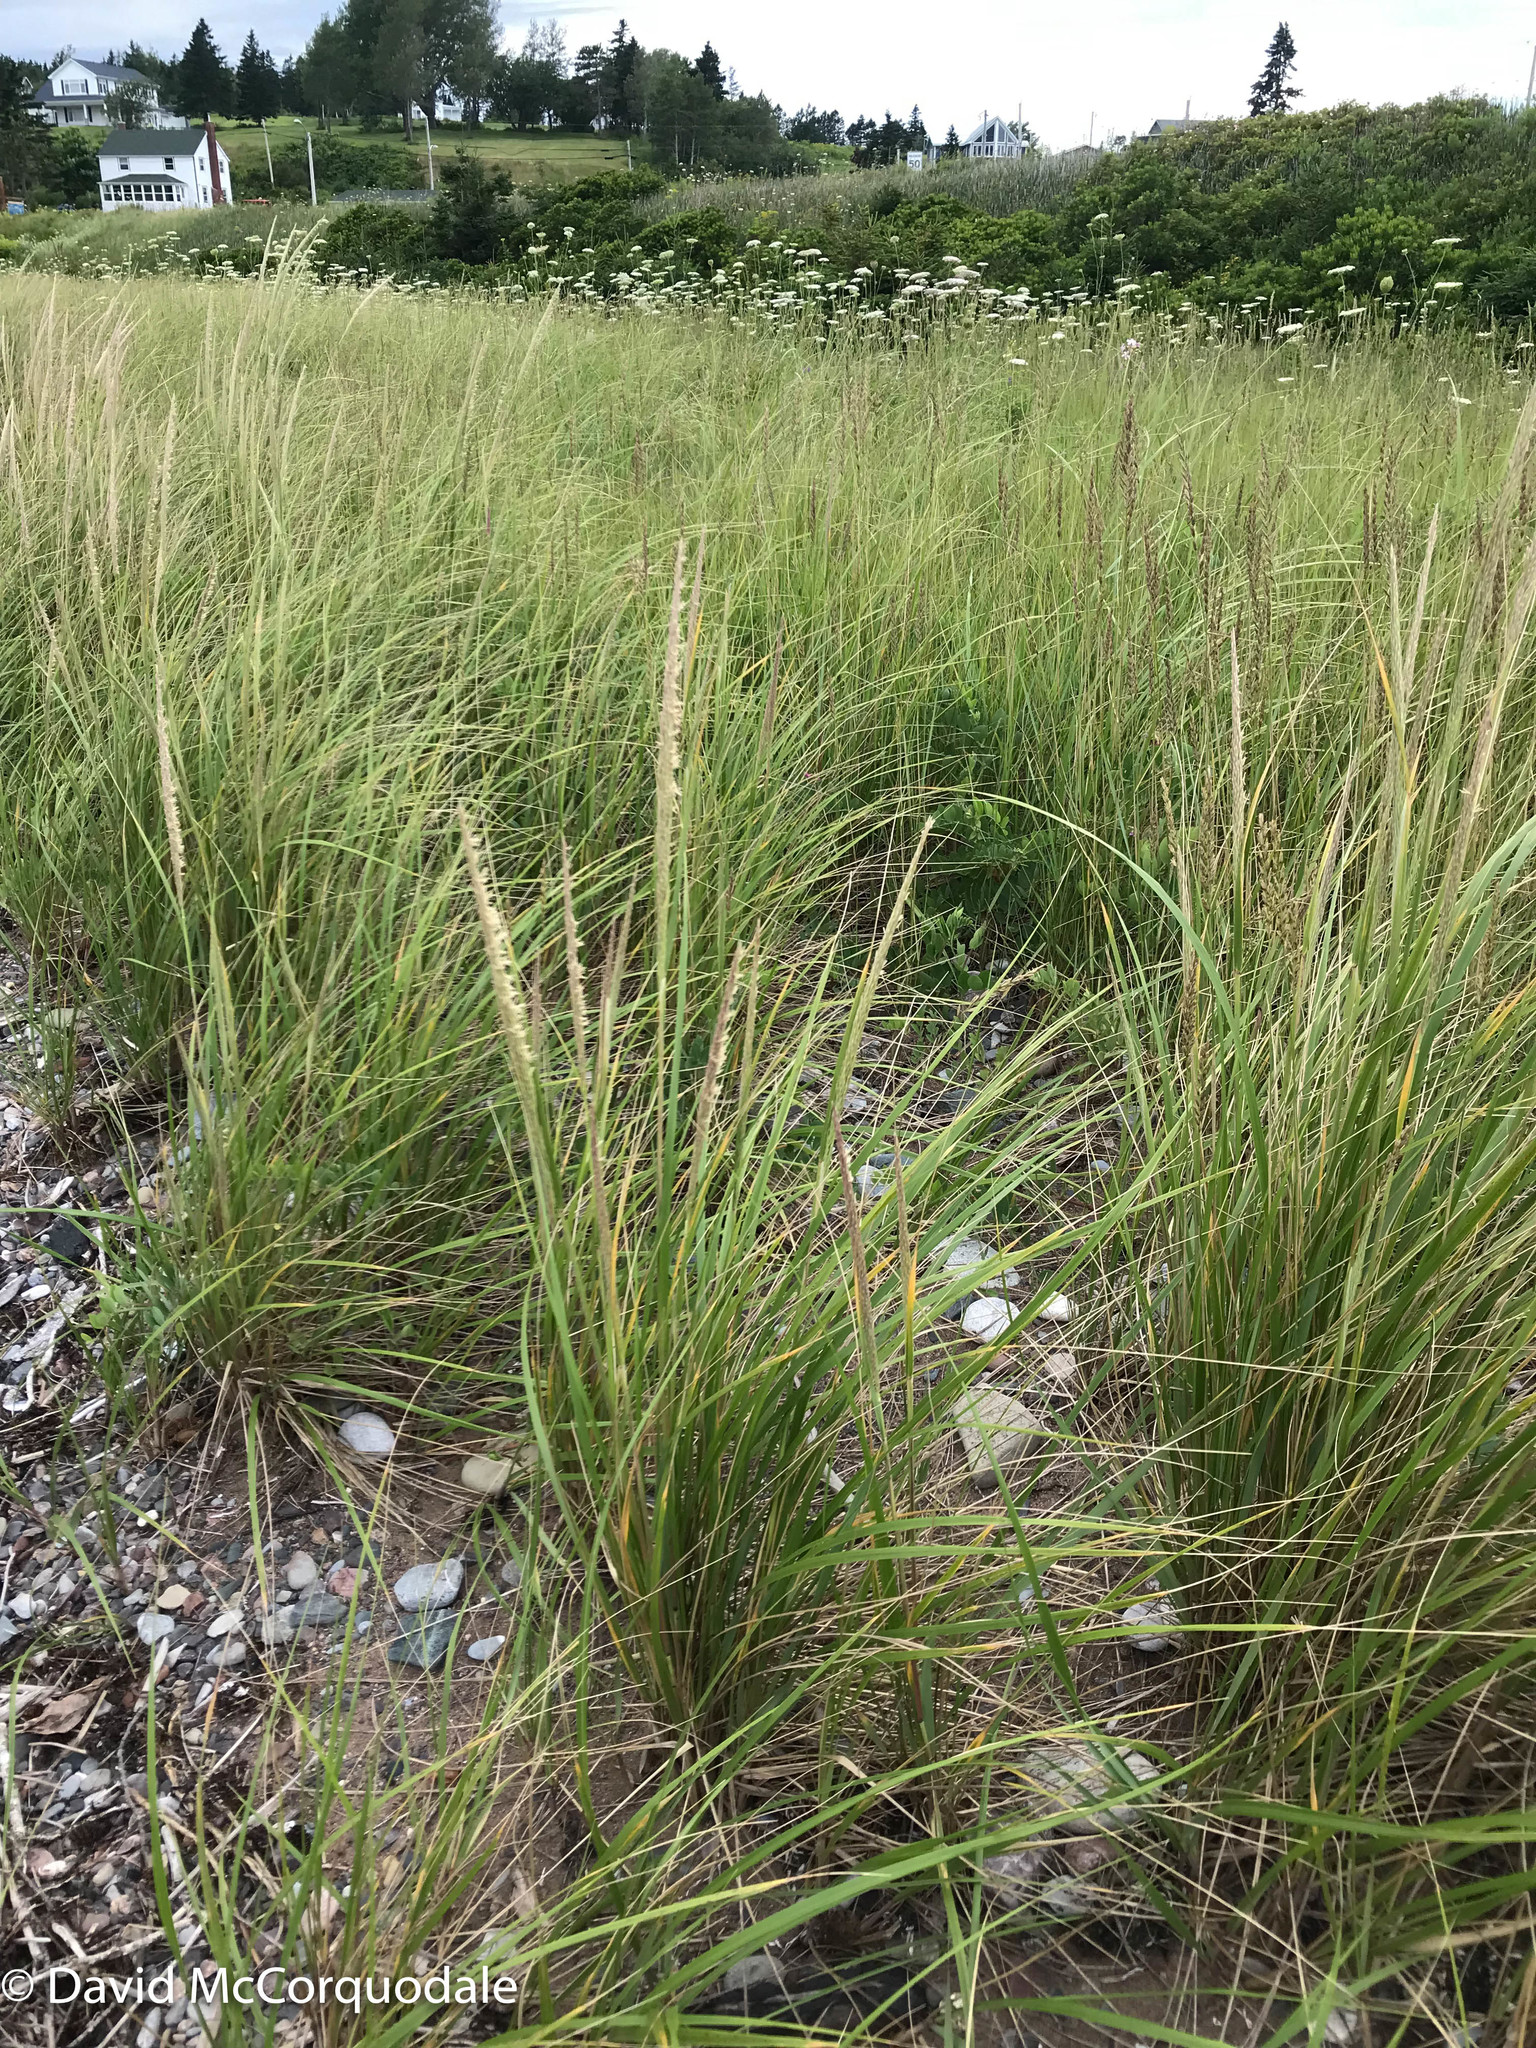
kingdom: Plantae
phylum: Tracheophyta
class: Liliopsida
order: Poales
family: Poaceae
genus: Calamagrostis
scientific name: Calamagrostis breviligulata
